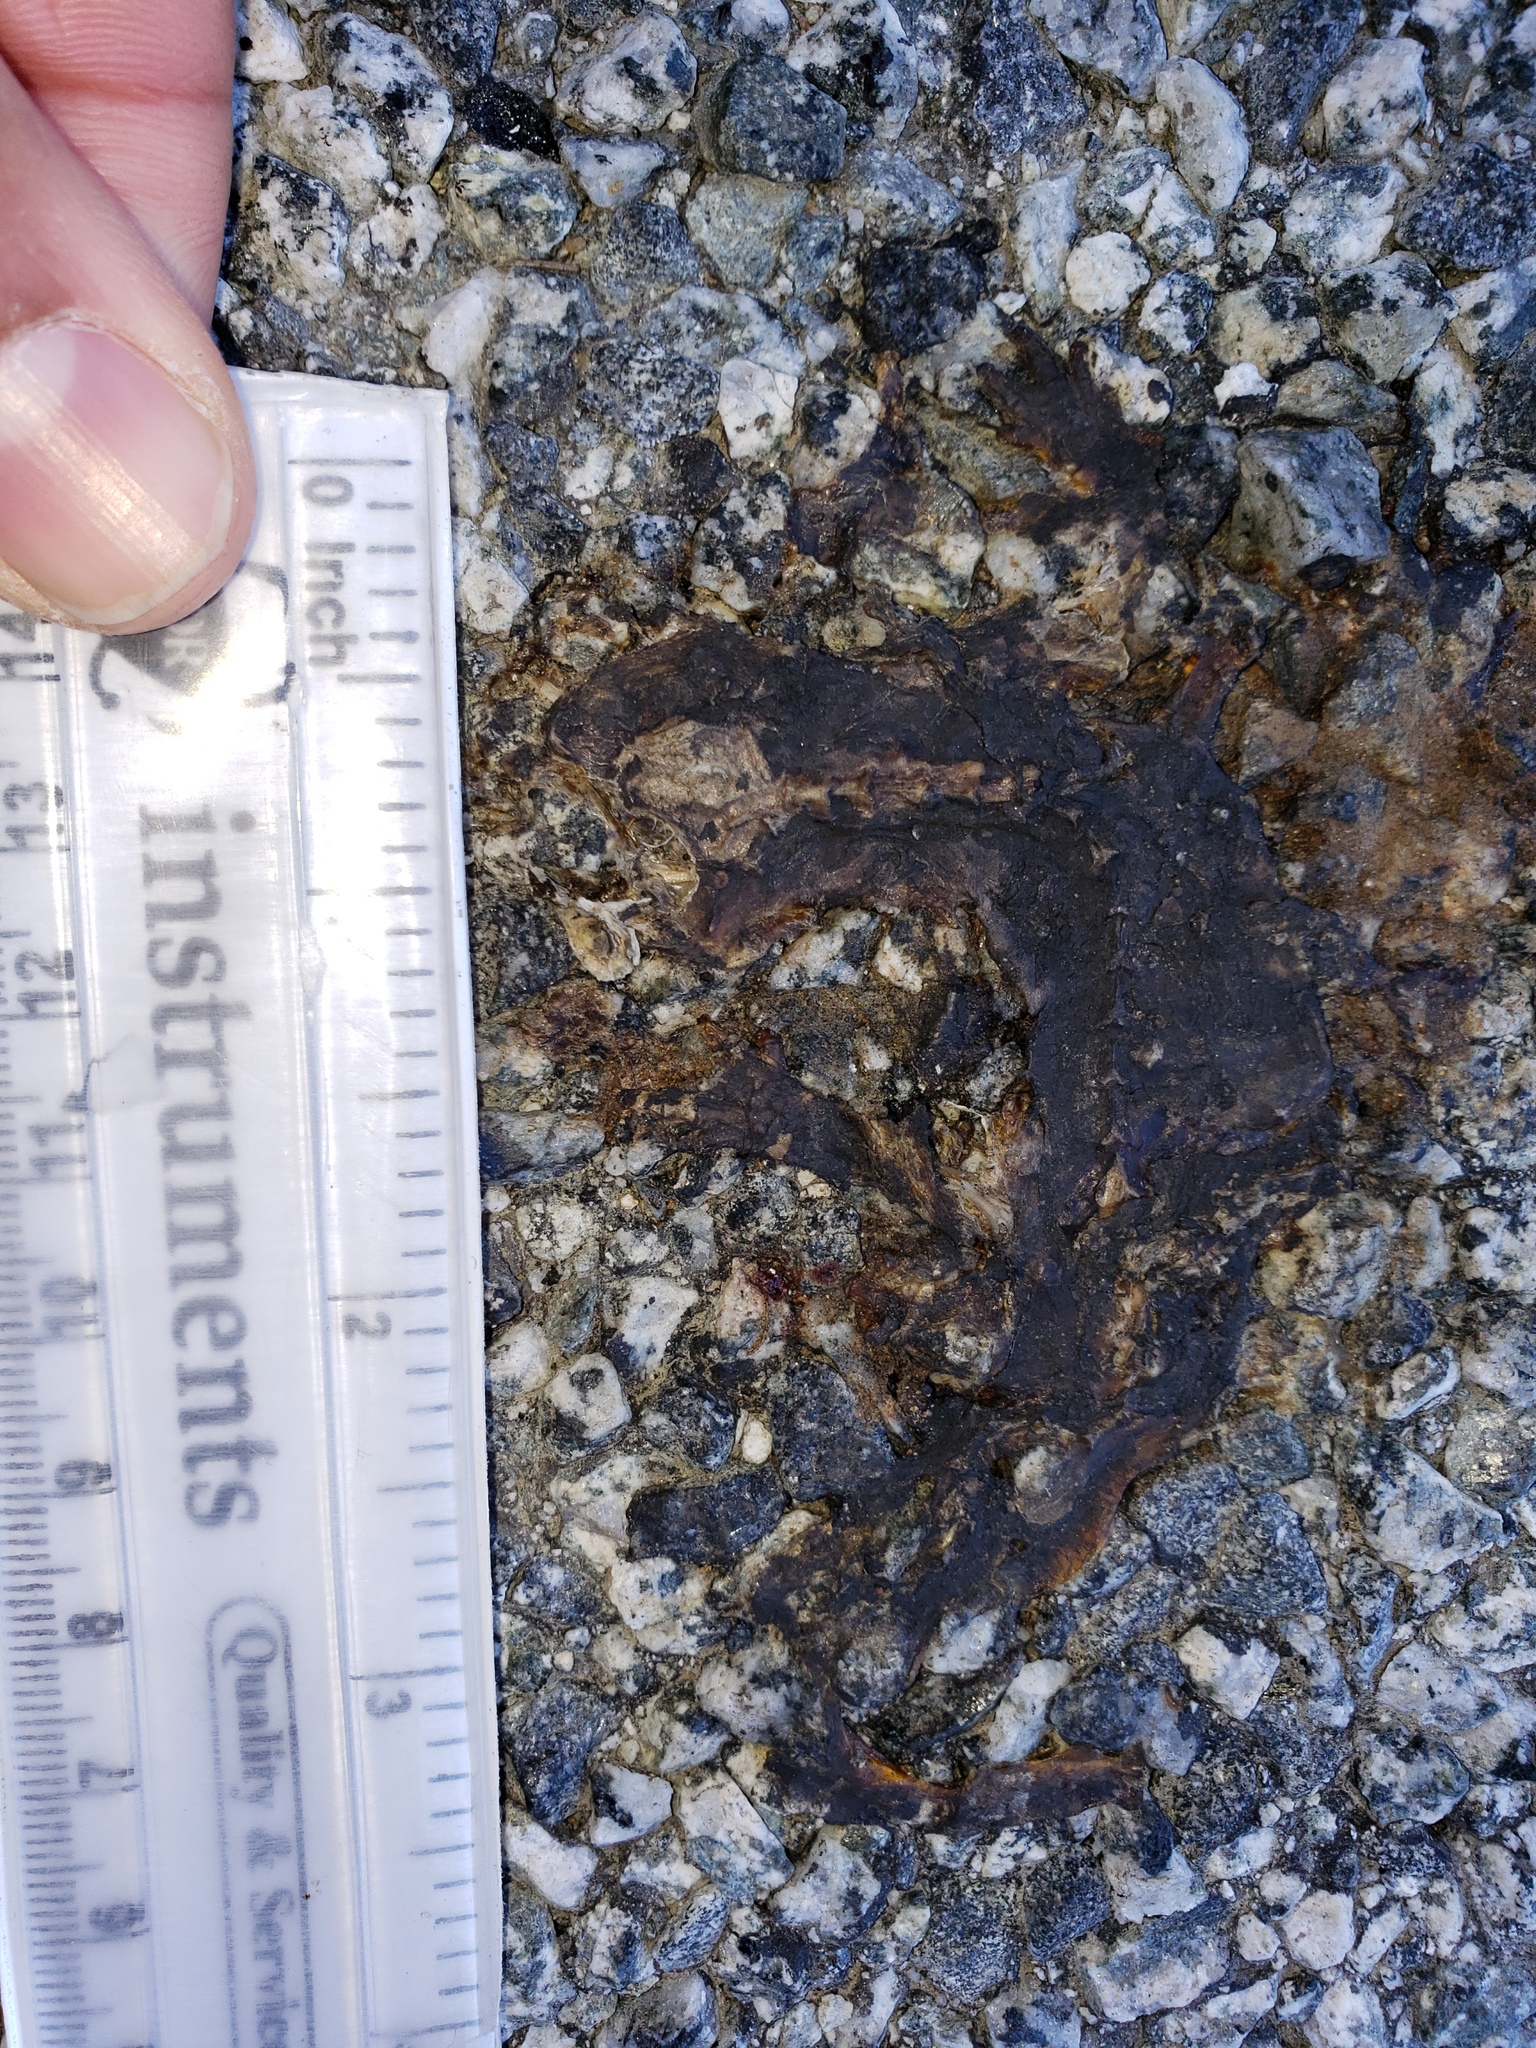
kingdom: Animalia
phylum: Chordata
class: Amphibia
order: Caudata
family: Salamandridae
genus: Taricha
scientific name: Taricha
